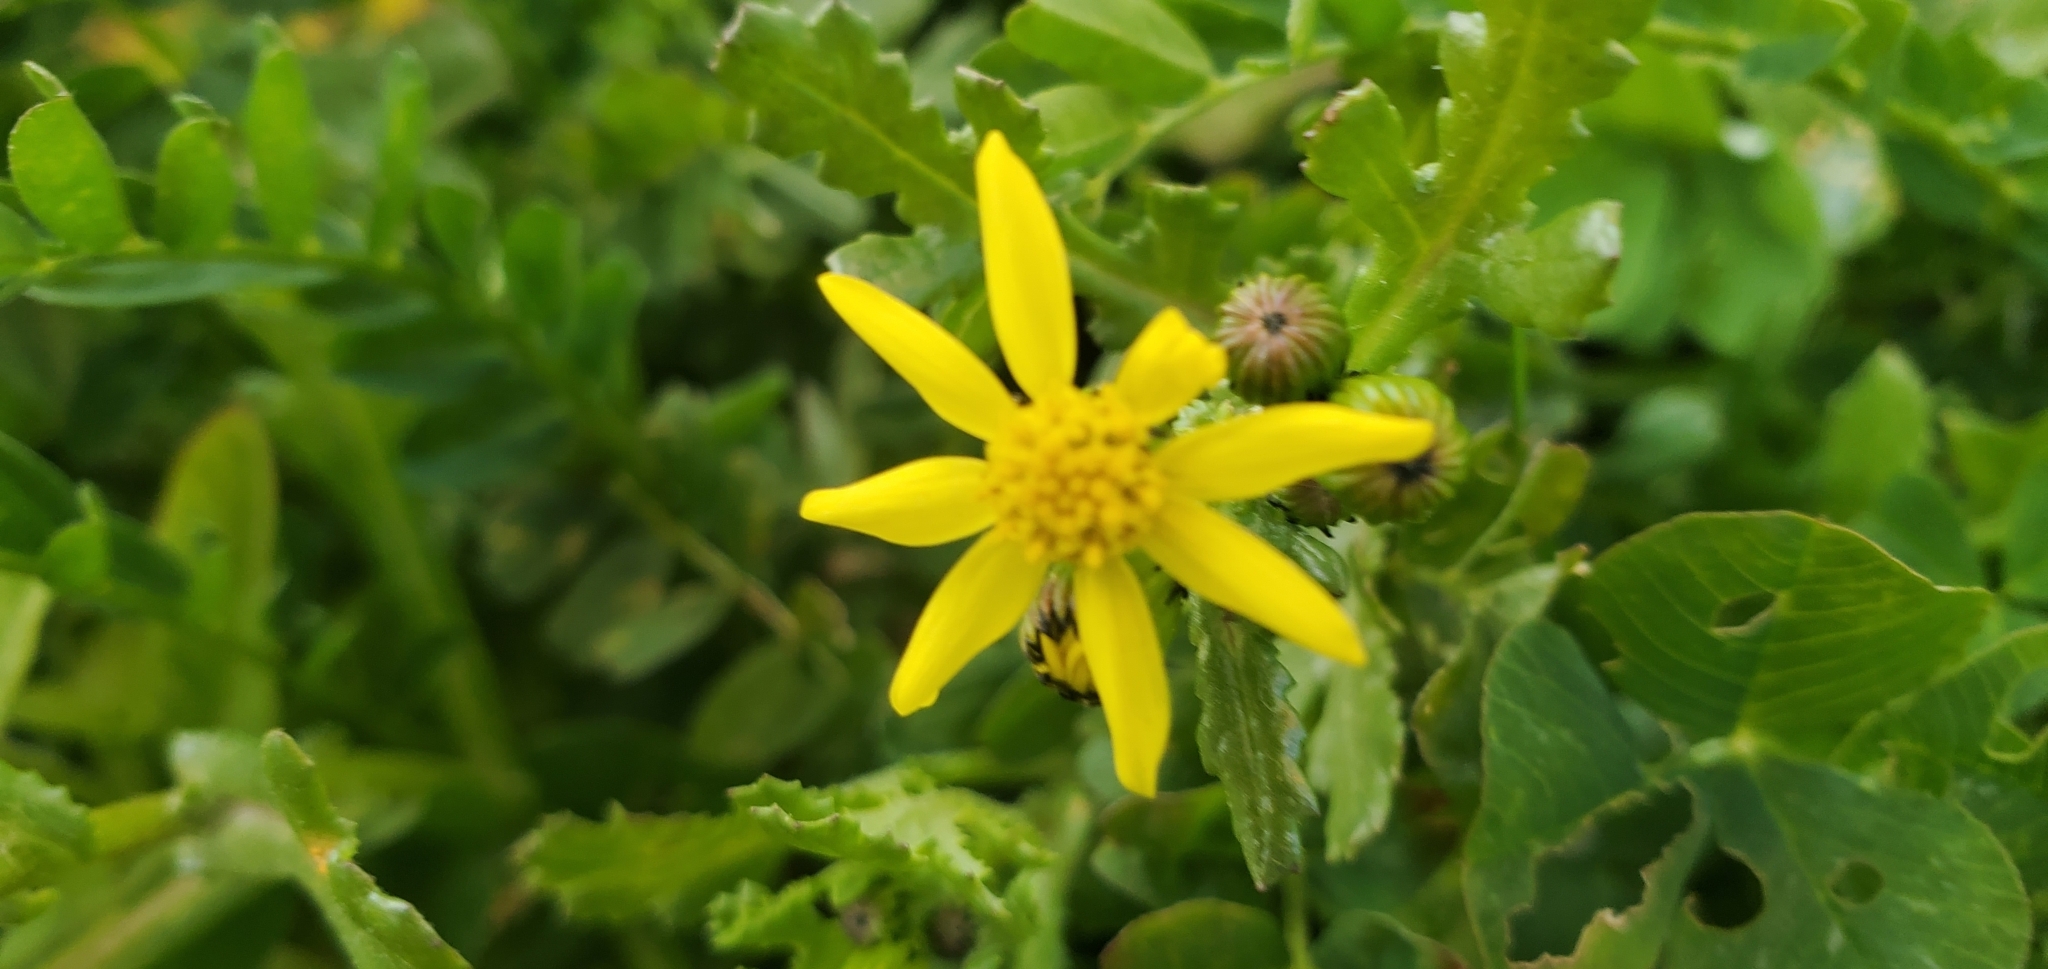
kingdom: Plantae
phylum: Tracheophyta
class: Magnoliopsida
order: Asterales
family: Asteraceae
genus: Senecio
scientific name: Senecio leucanthemifolius
